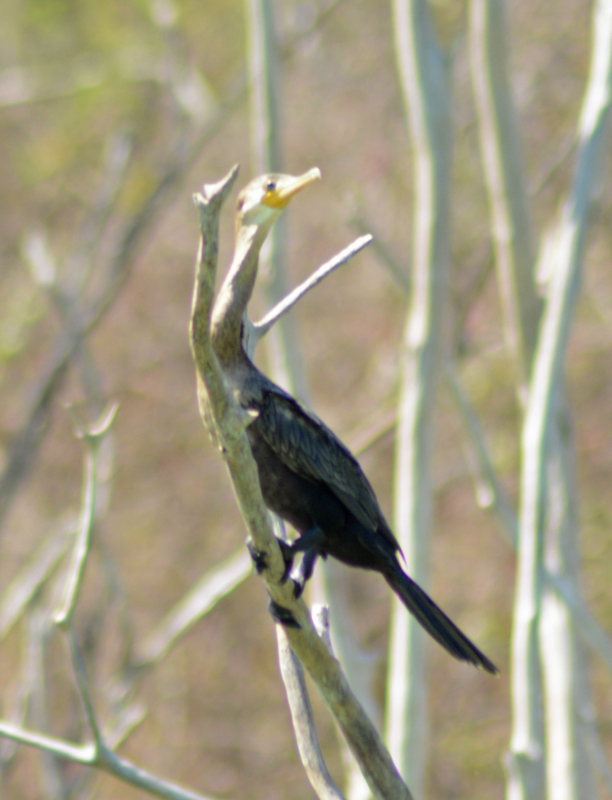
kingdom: Animalia
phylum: Chordata
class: Aves
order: Suliformes
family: Phalacrocoracidae
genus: Phalacrocorax
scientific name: Phalacrocorax brasilianus
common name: Neotropic cormorant
